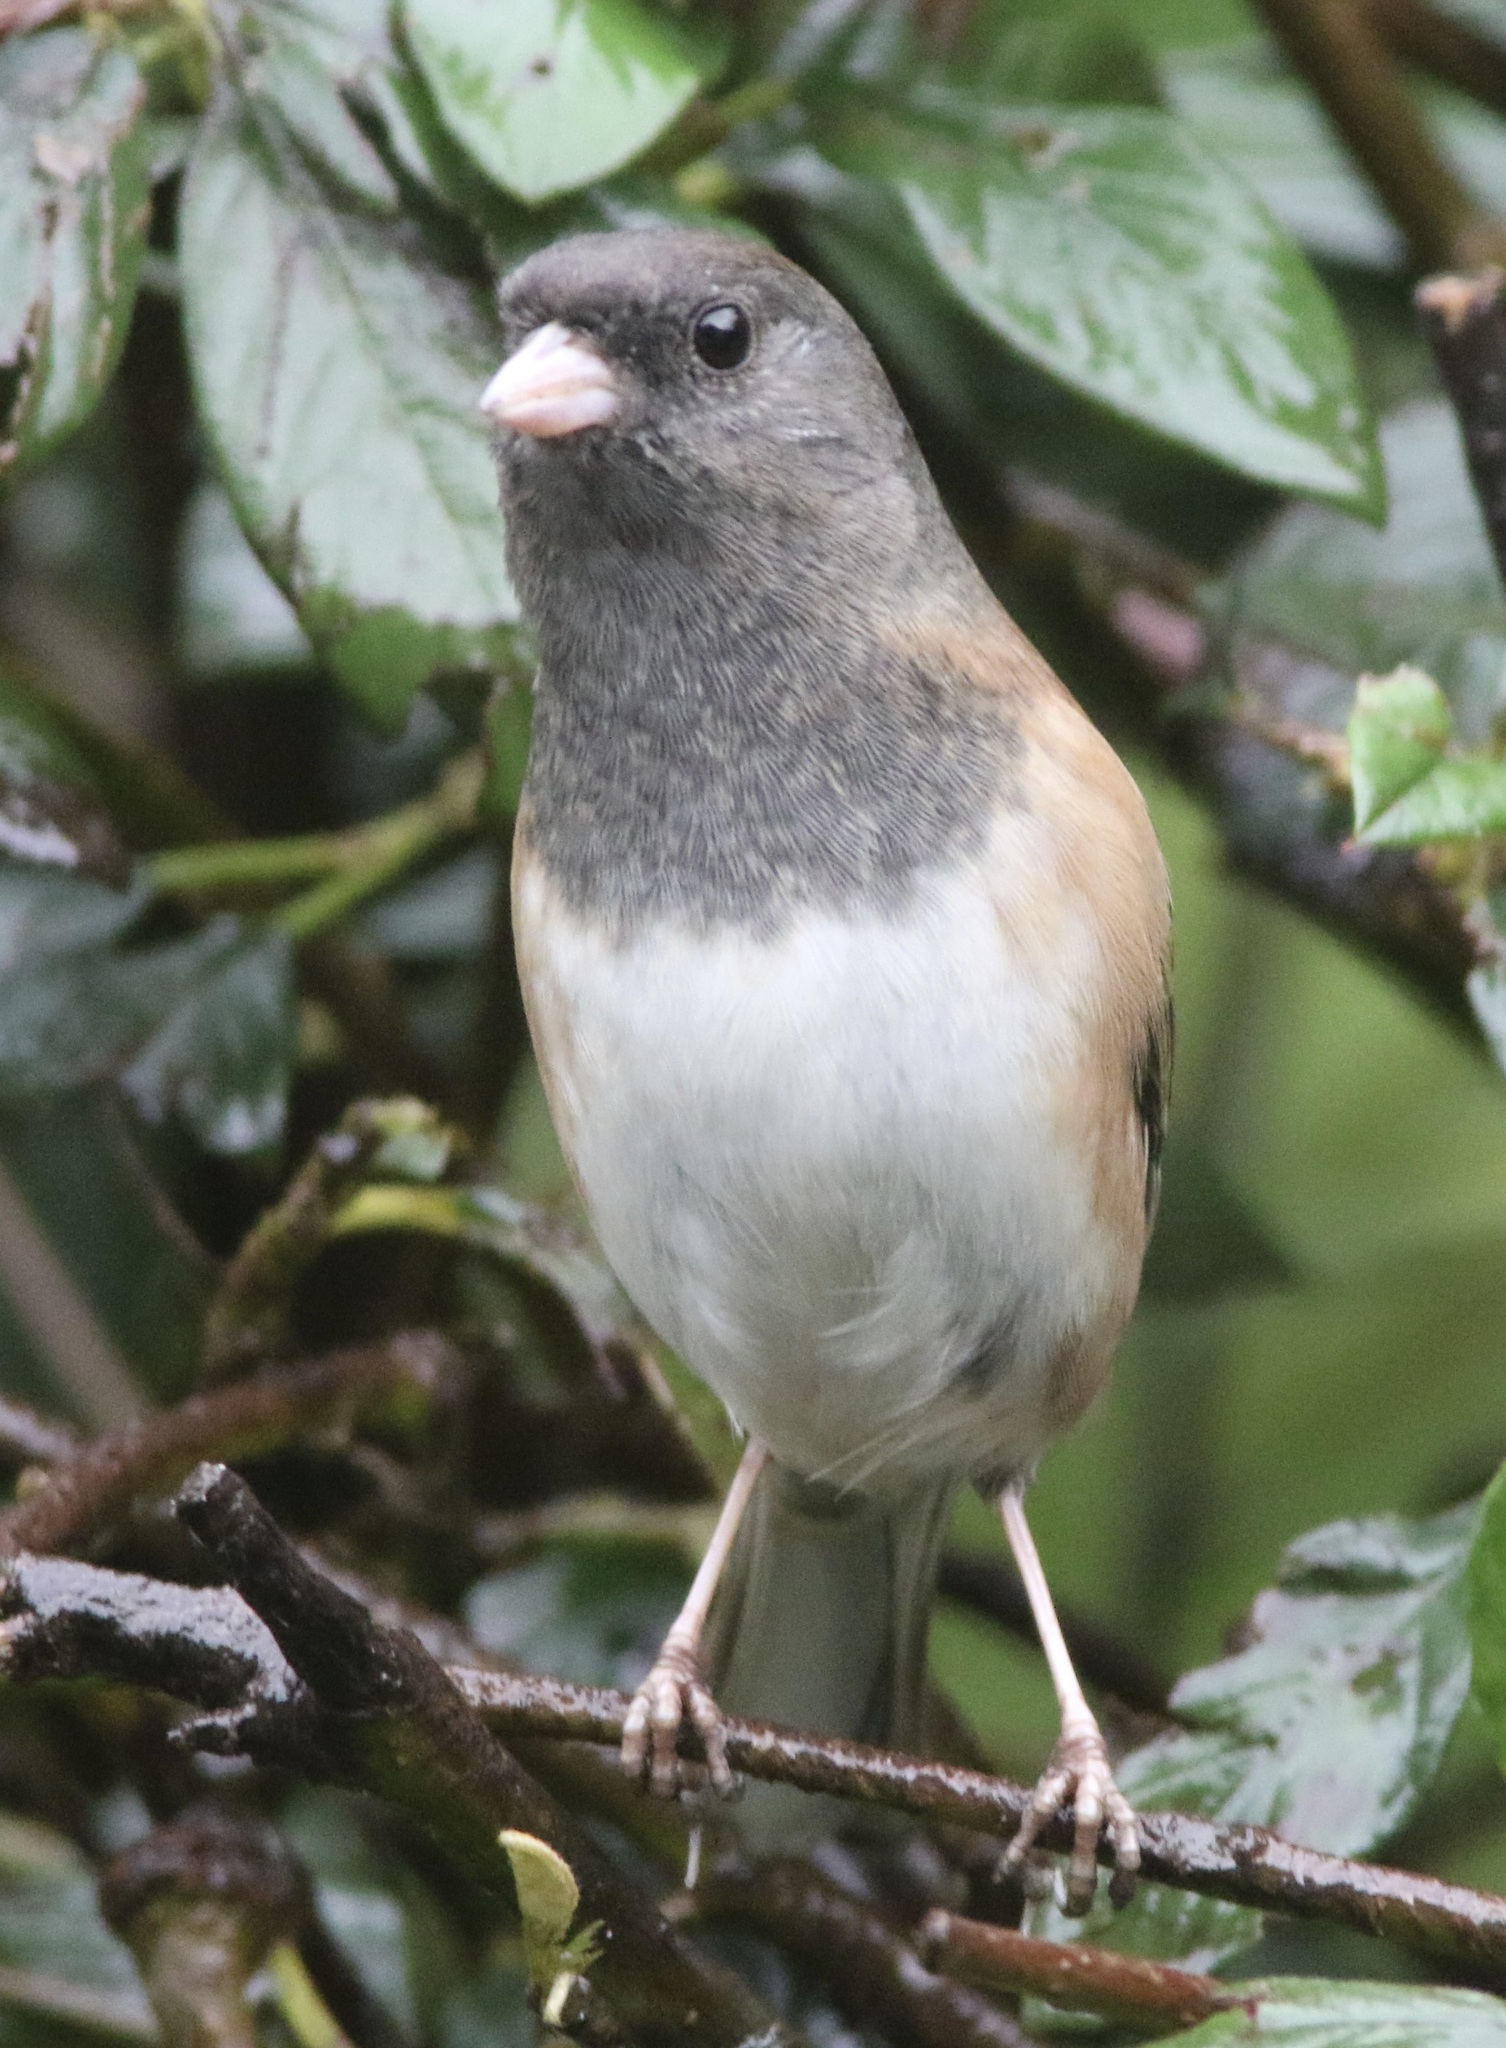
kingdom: Animalia
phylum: Chordata
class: Aves
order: Passeriformes
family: Passerellidae
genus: Junco
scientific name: Junco hyemalis
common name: Dark-eyed junco
